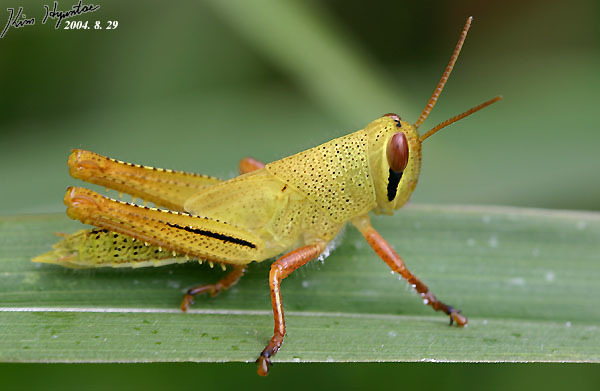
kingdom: Animalia
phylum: Arthropoda
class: Insecta
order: Orthoptera
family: Acrididae
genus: Patanga
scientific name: Patanga japonica
